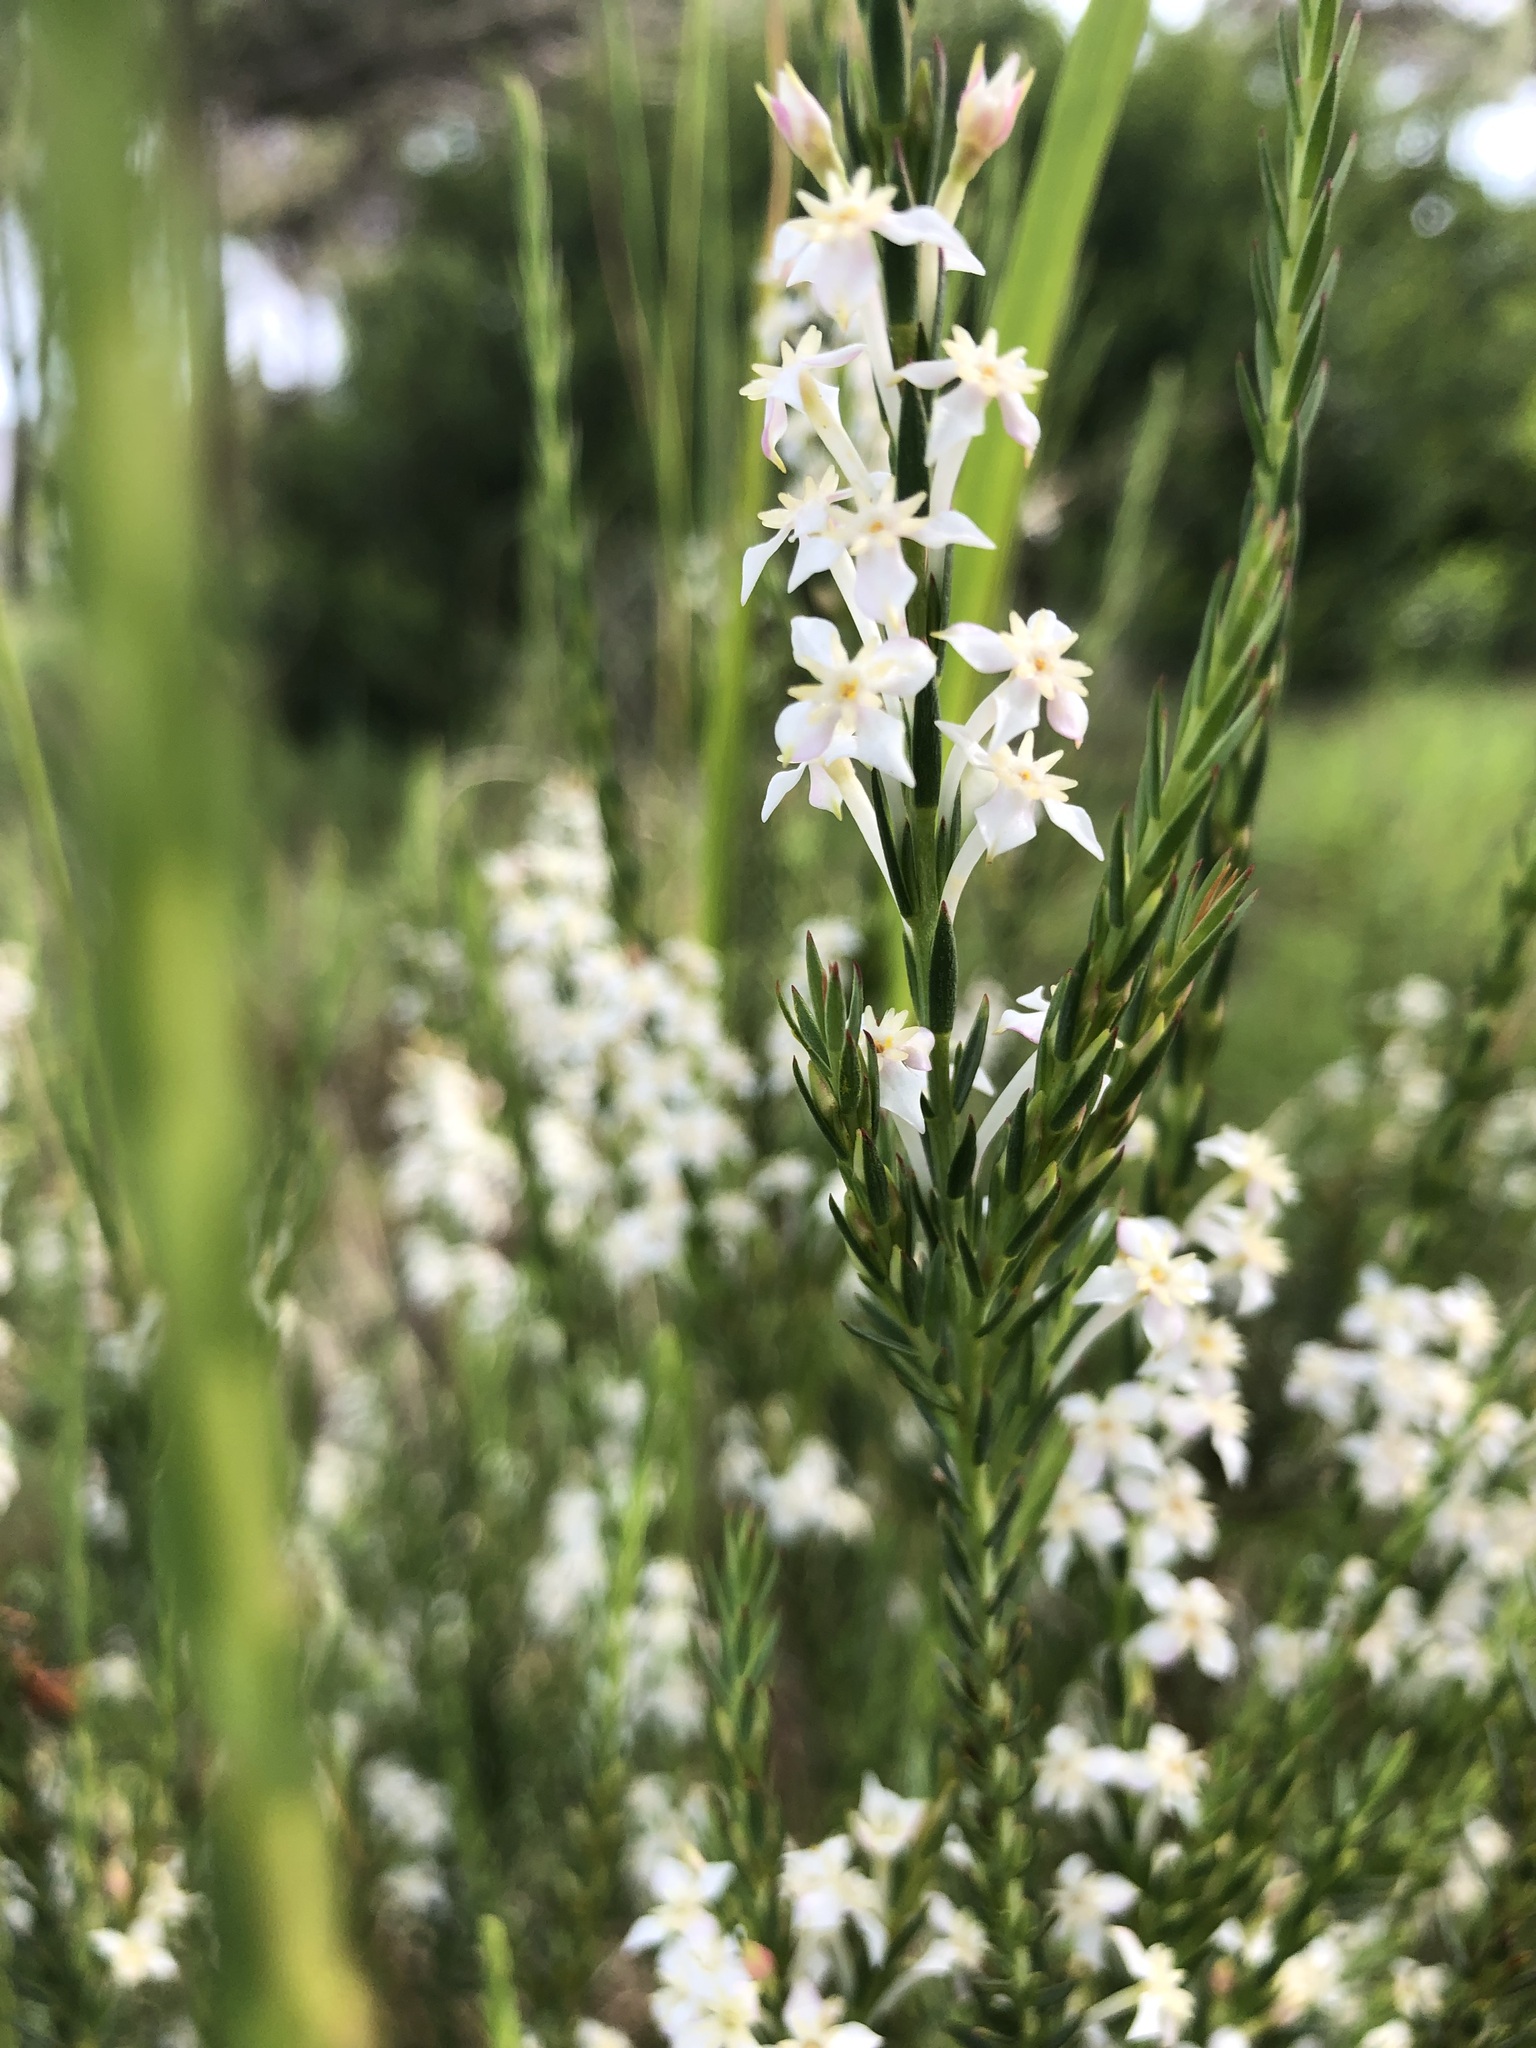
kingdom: Plantae
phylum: Tracheophyta
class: Magnoliopsida
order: Malvales
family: Thymelaeaceae
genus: Struthiola
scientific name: Struthiola dodecandra
